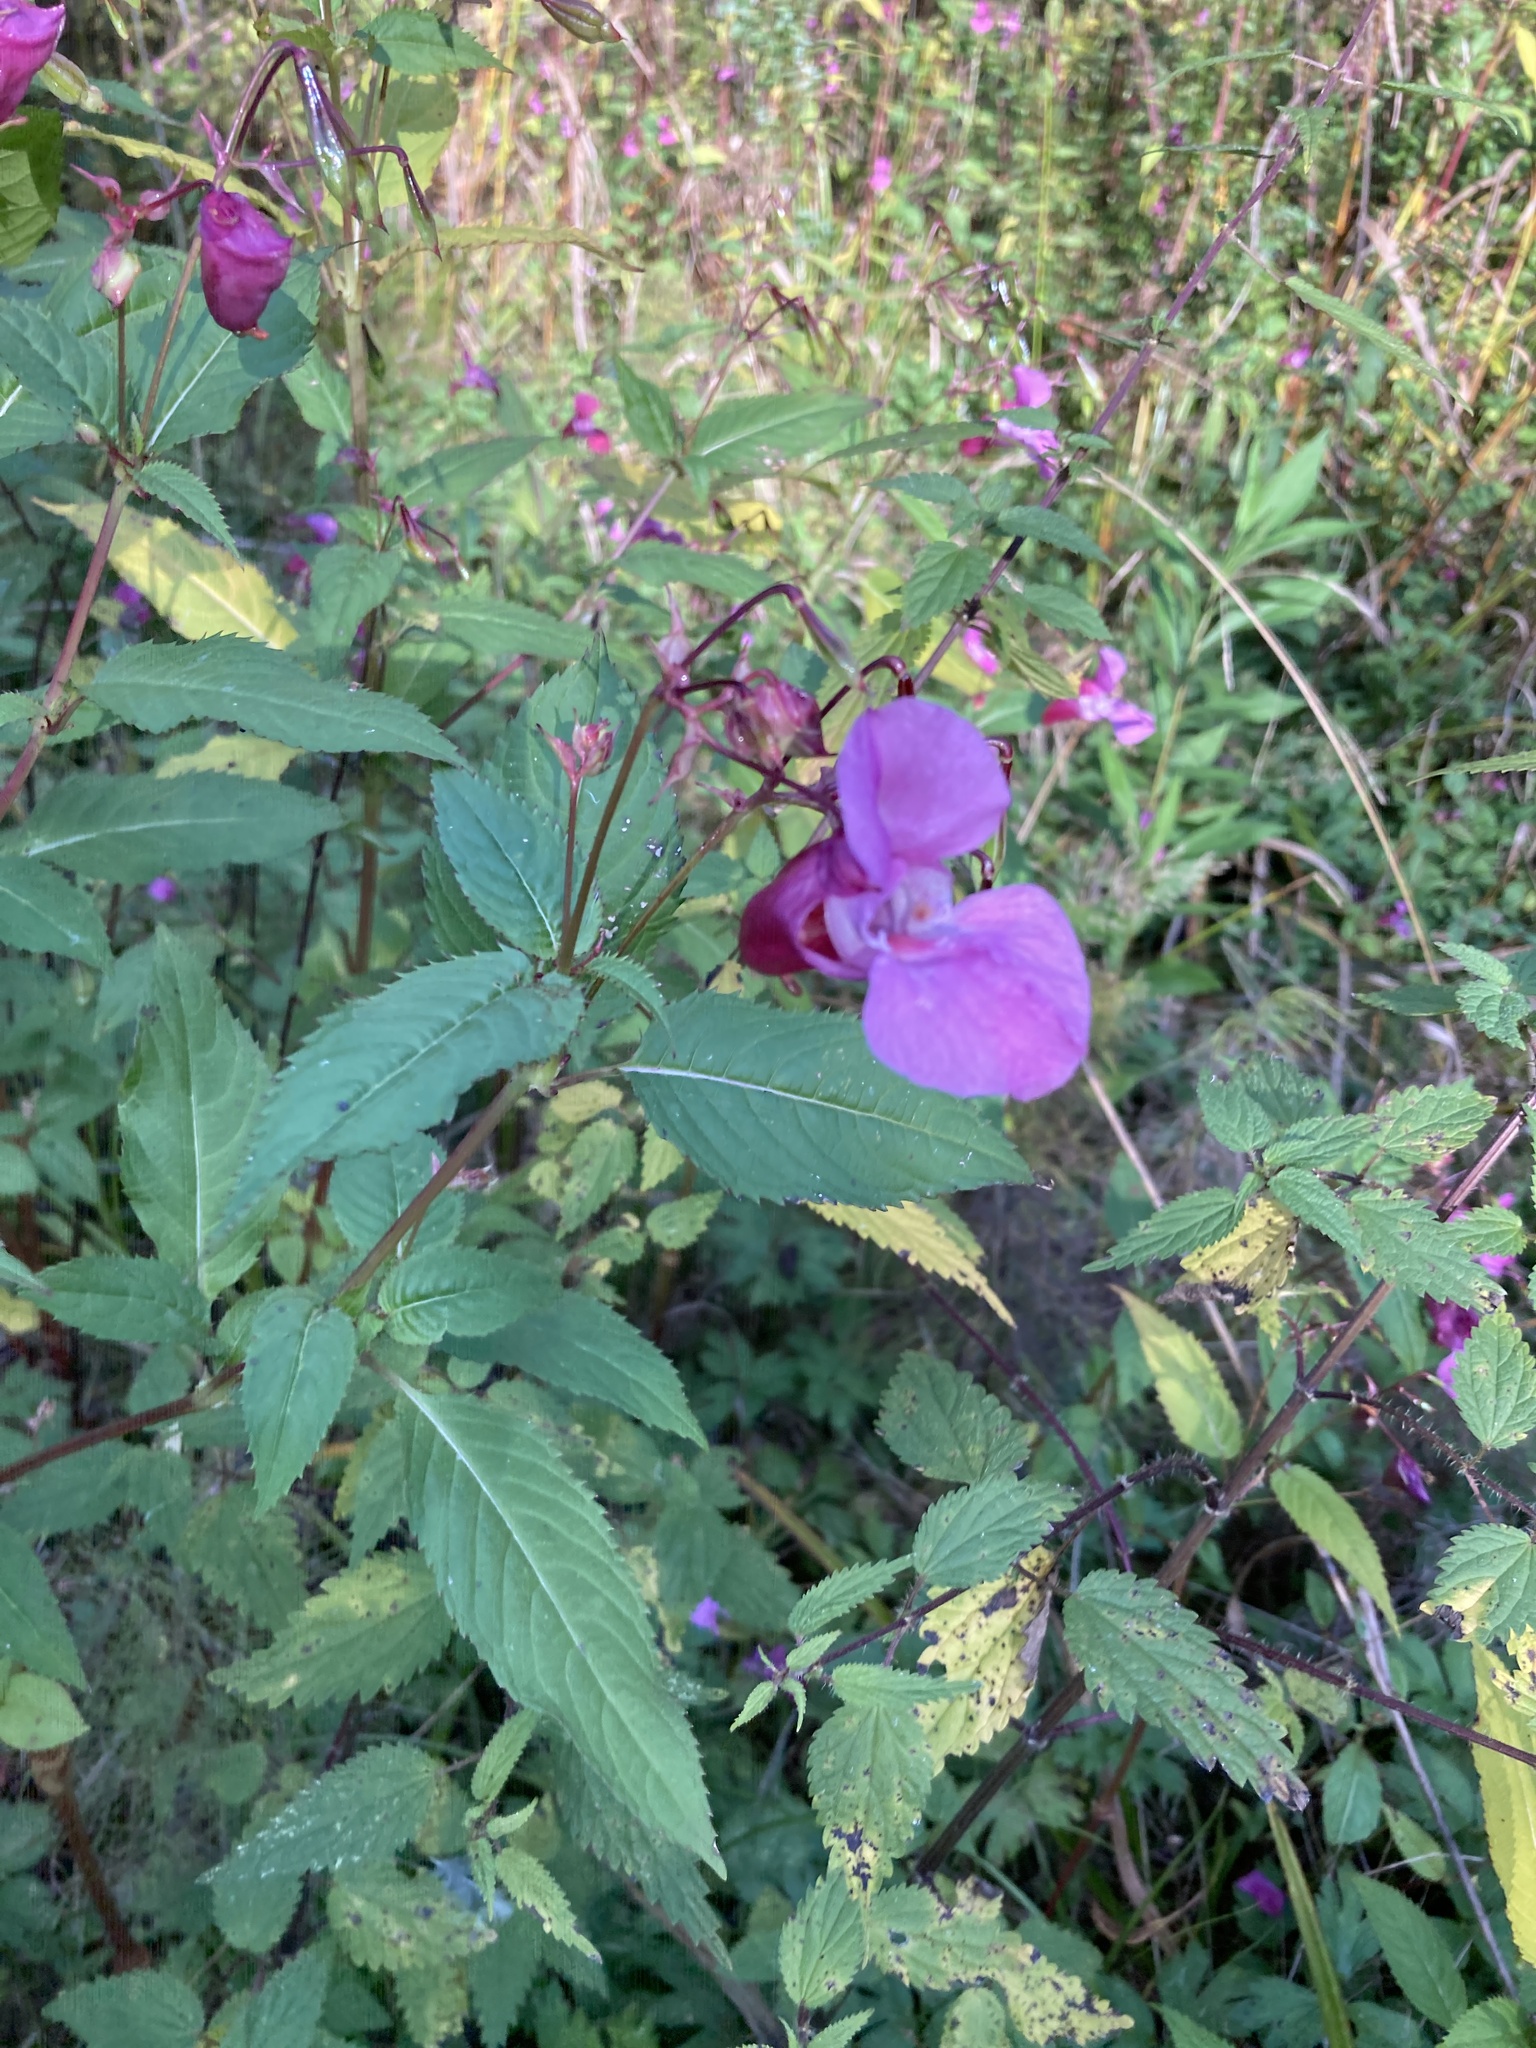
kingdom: Plantae
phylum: Tracheophyta
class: Magnoliopsida
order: Ericales
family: Balsaminaceae
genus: Impatiens
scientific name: Impatiens glandulifera
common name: Himalayan balsam
